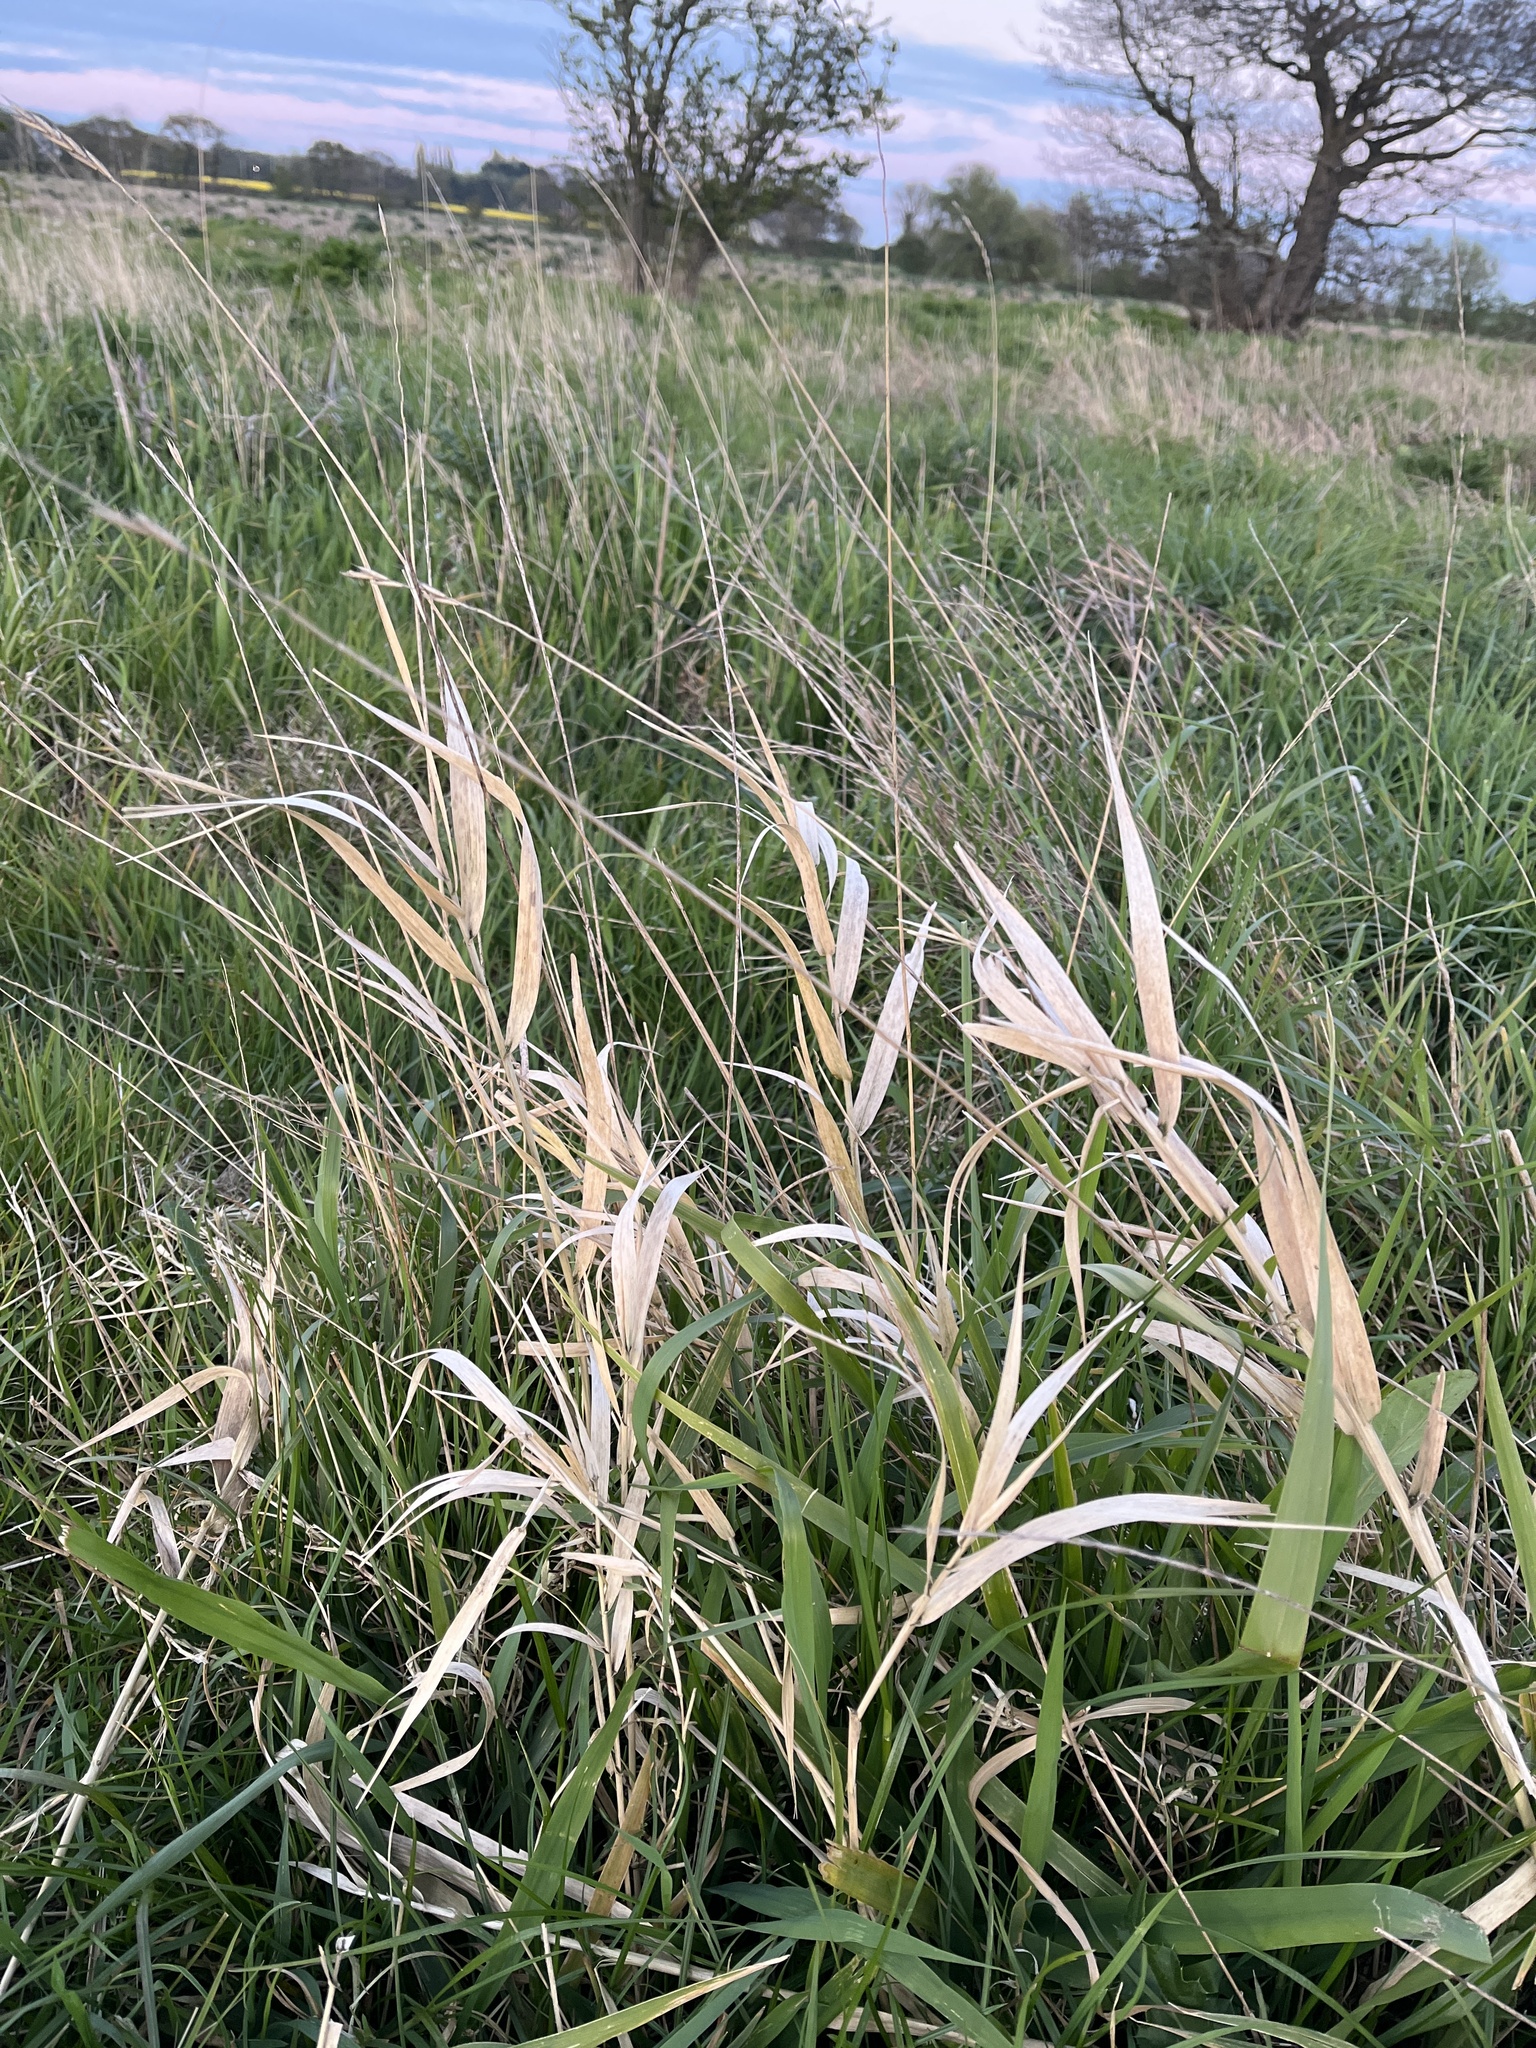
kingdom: Plantae
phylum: Tracheophyta
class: Liliopsida
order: Poales
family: Poaceae
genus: Phalaris
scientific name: Phalaris arundinacea
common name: Reed canary-grass
